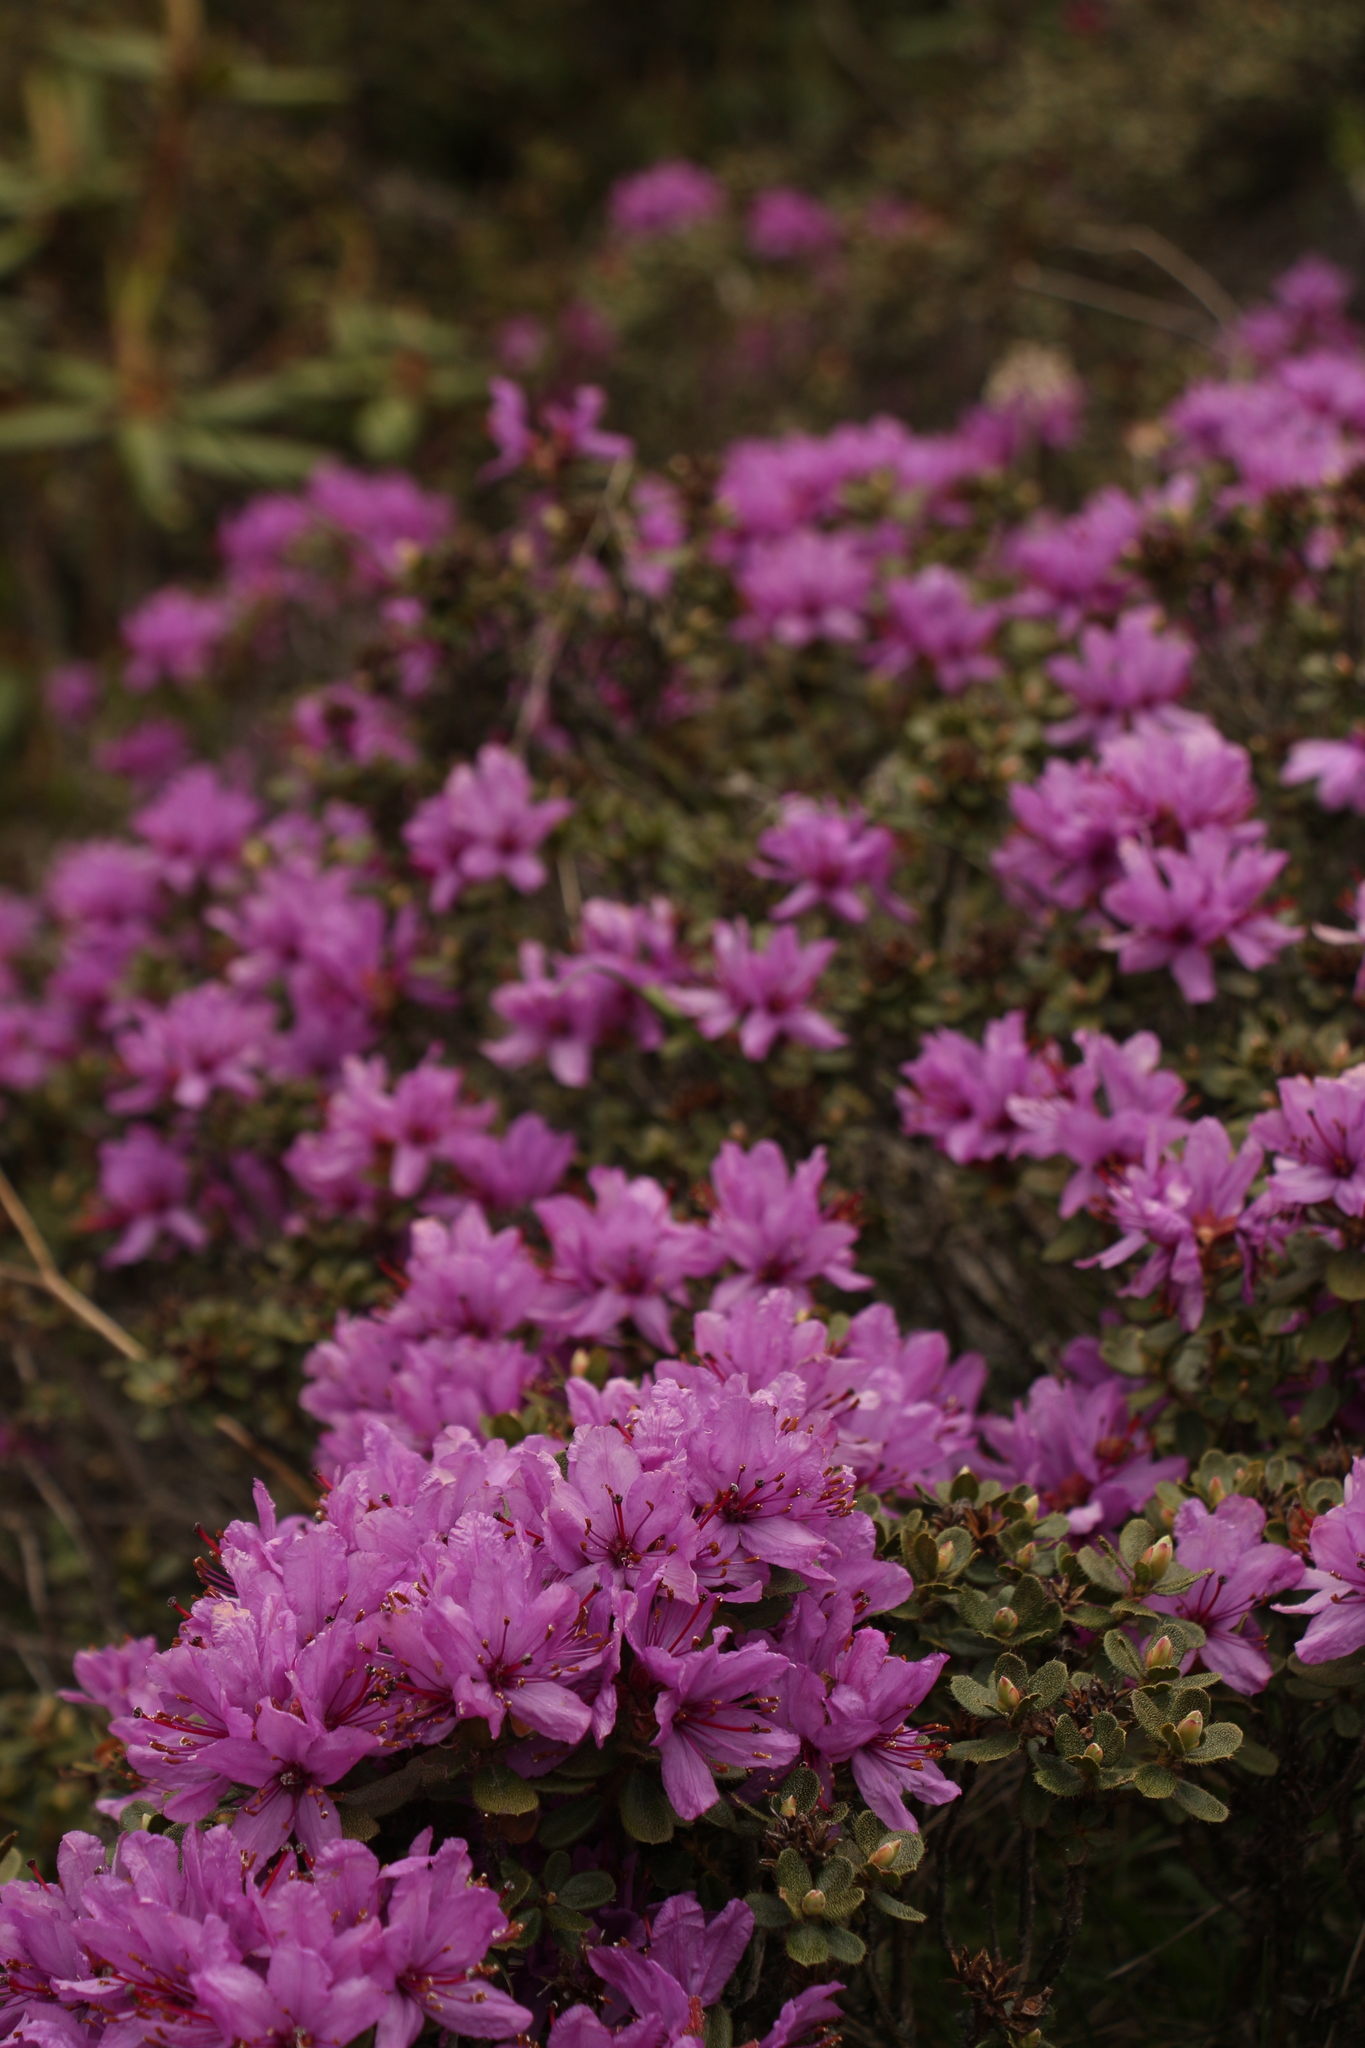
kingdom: Plantae
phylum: Tracheophyta
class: Magnoliopsida
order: Ericales
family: Ericaceae
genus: Rhododendron
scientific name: Rhododendron setosum
